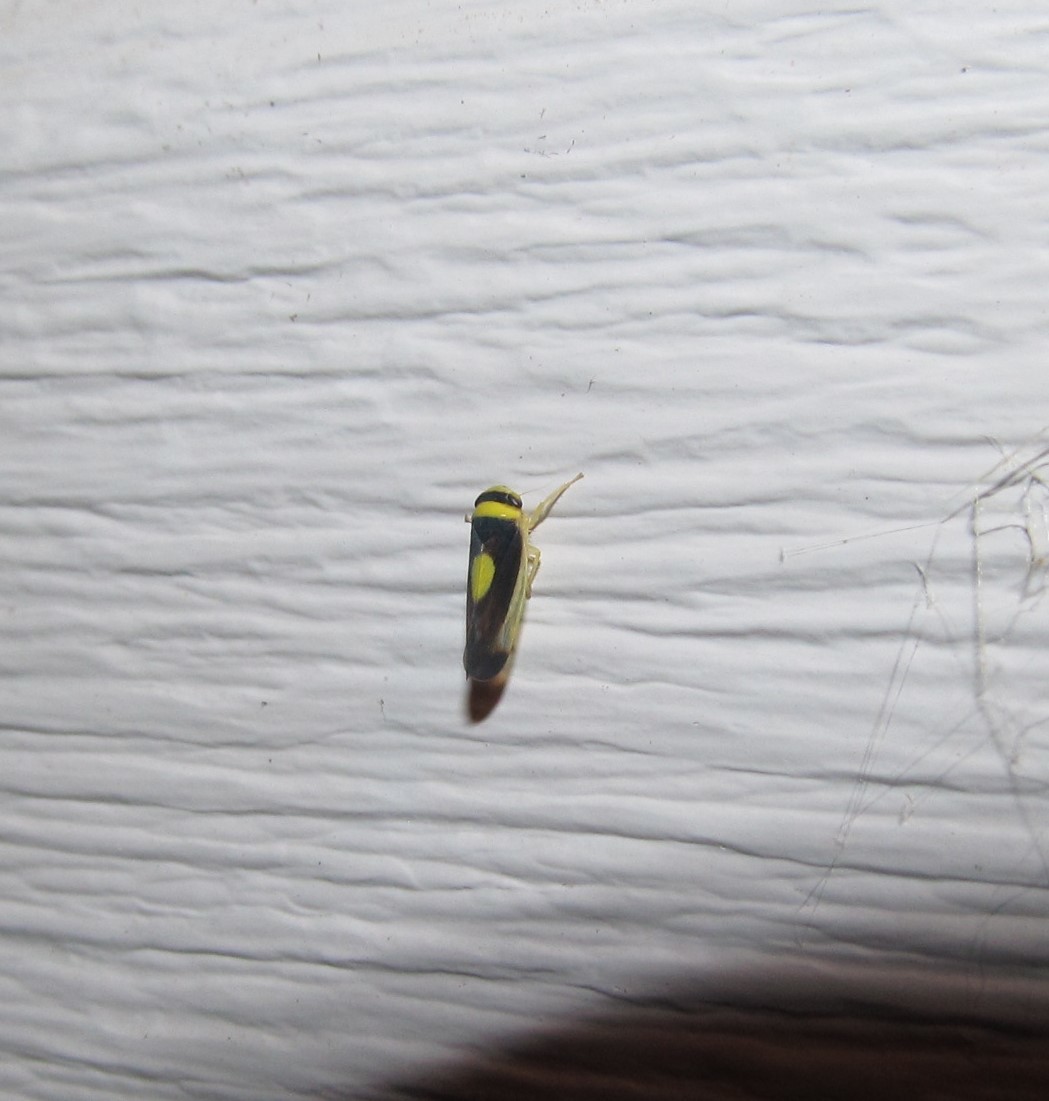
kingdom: Animalia
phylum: Arthropoda
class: Insecta
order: Hemiptera
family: Cicadellidae
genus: Colladonus
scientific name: Colladonus clitellarius
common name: The saddleback leafhopper
